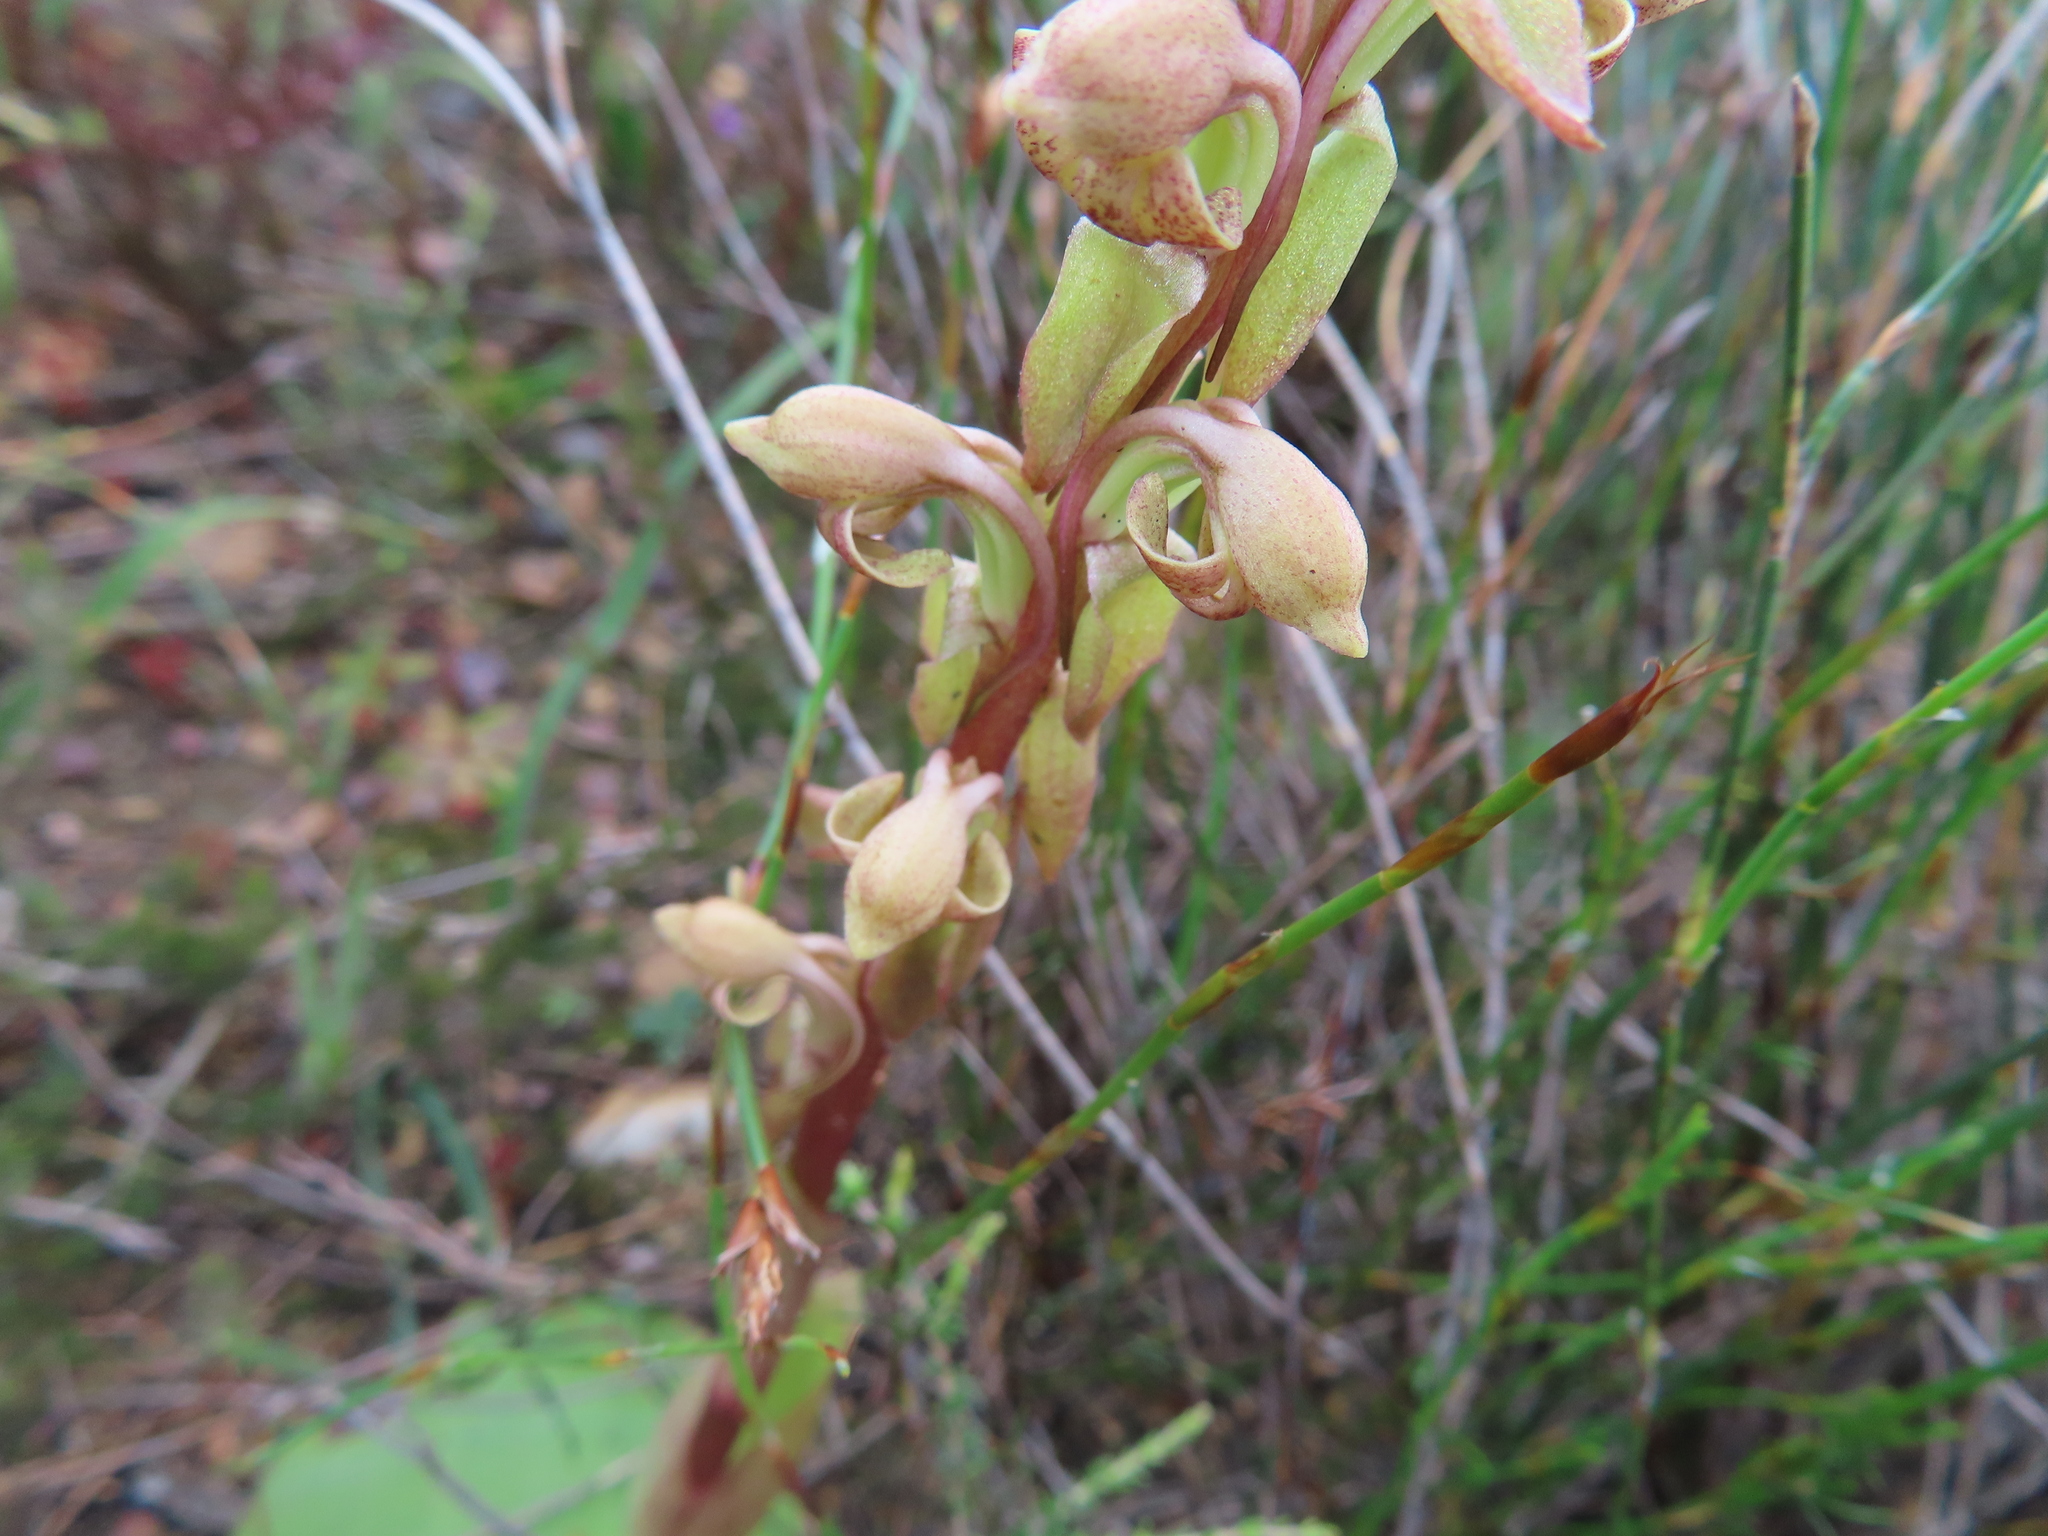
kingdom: Plantae
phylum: Tracheophyta
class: Liliopsida
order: Asparagales
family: Orchidaceae
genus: Satyrium
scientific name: Satyrium bicorne
